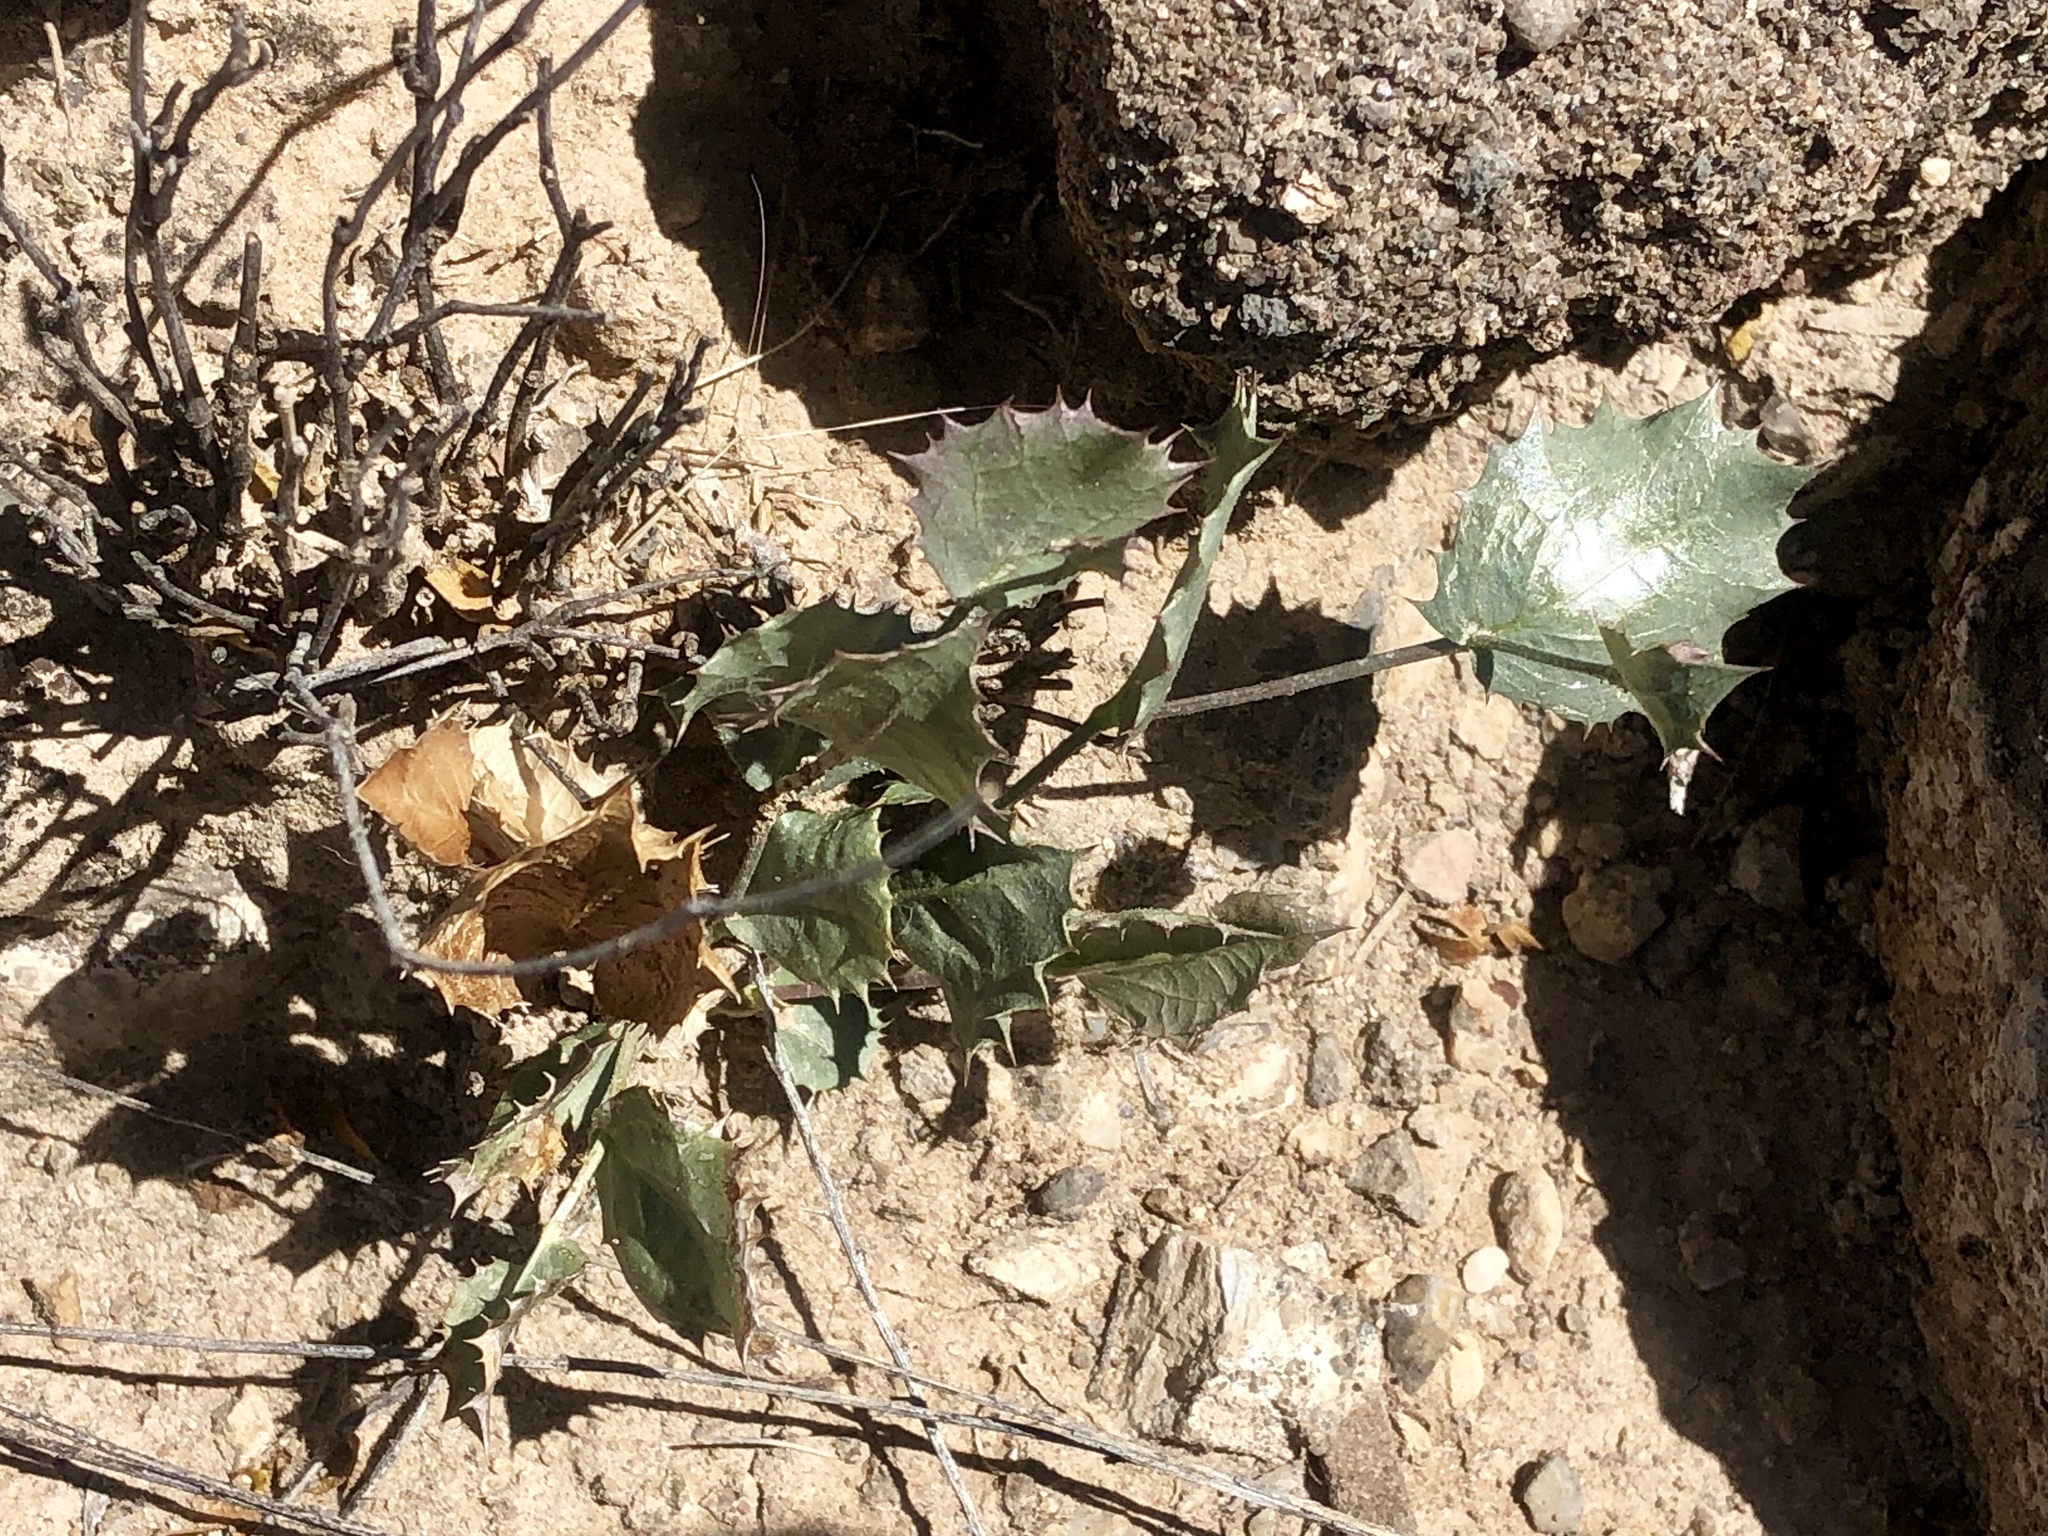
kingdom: Plantae
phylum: Tracheophyta
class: Magnoliopsida
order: Asterales
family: Asteraceae
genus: Acourtia
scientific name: Acourtia nana
